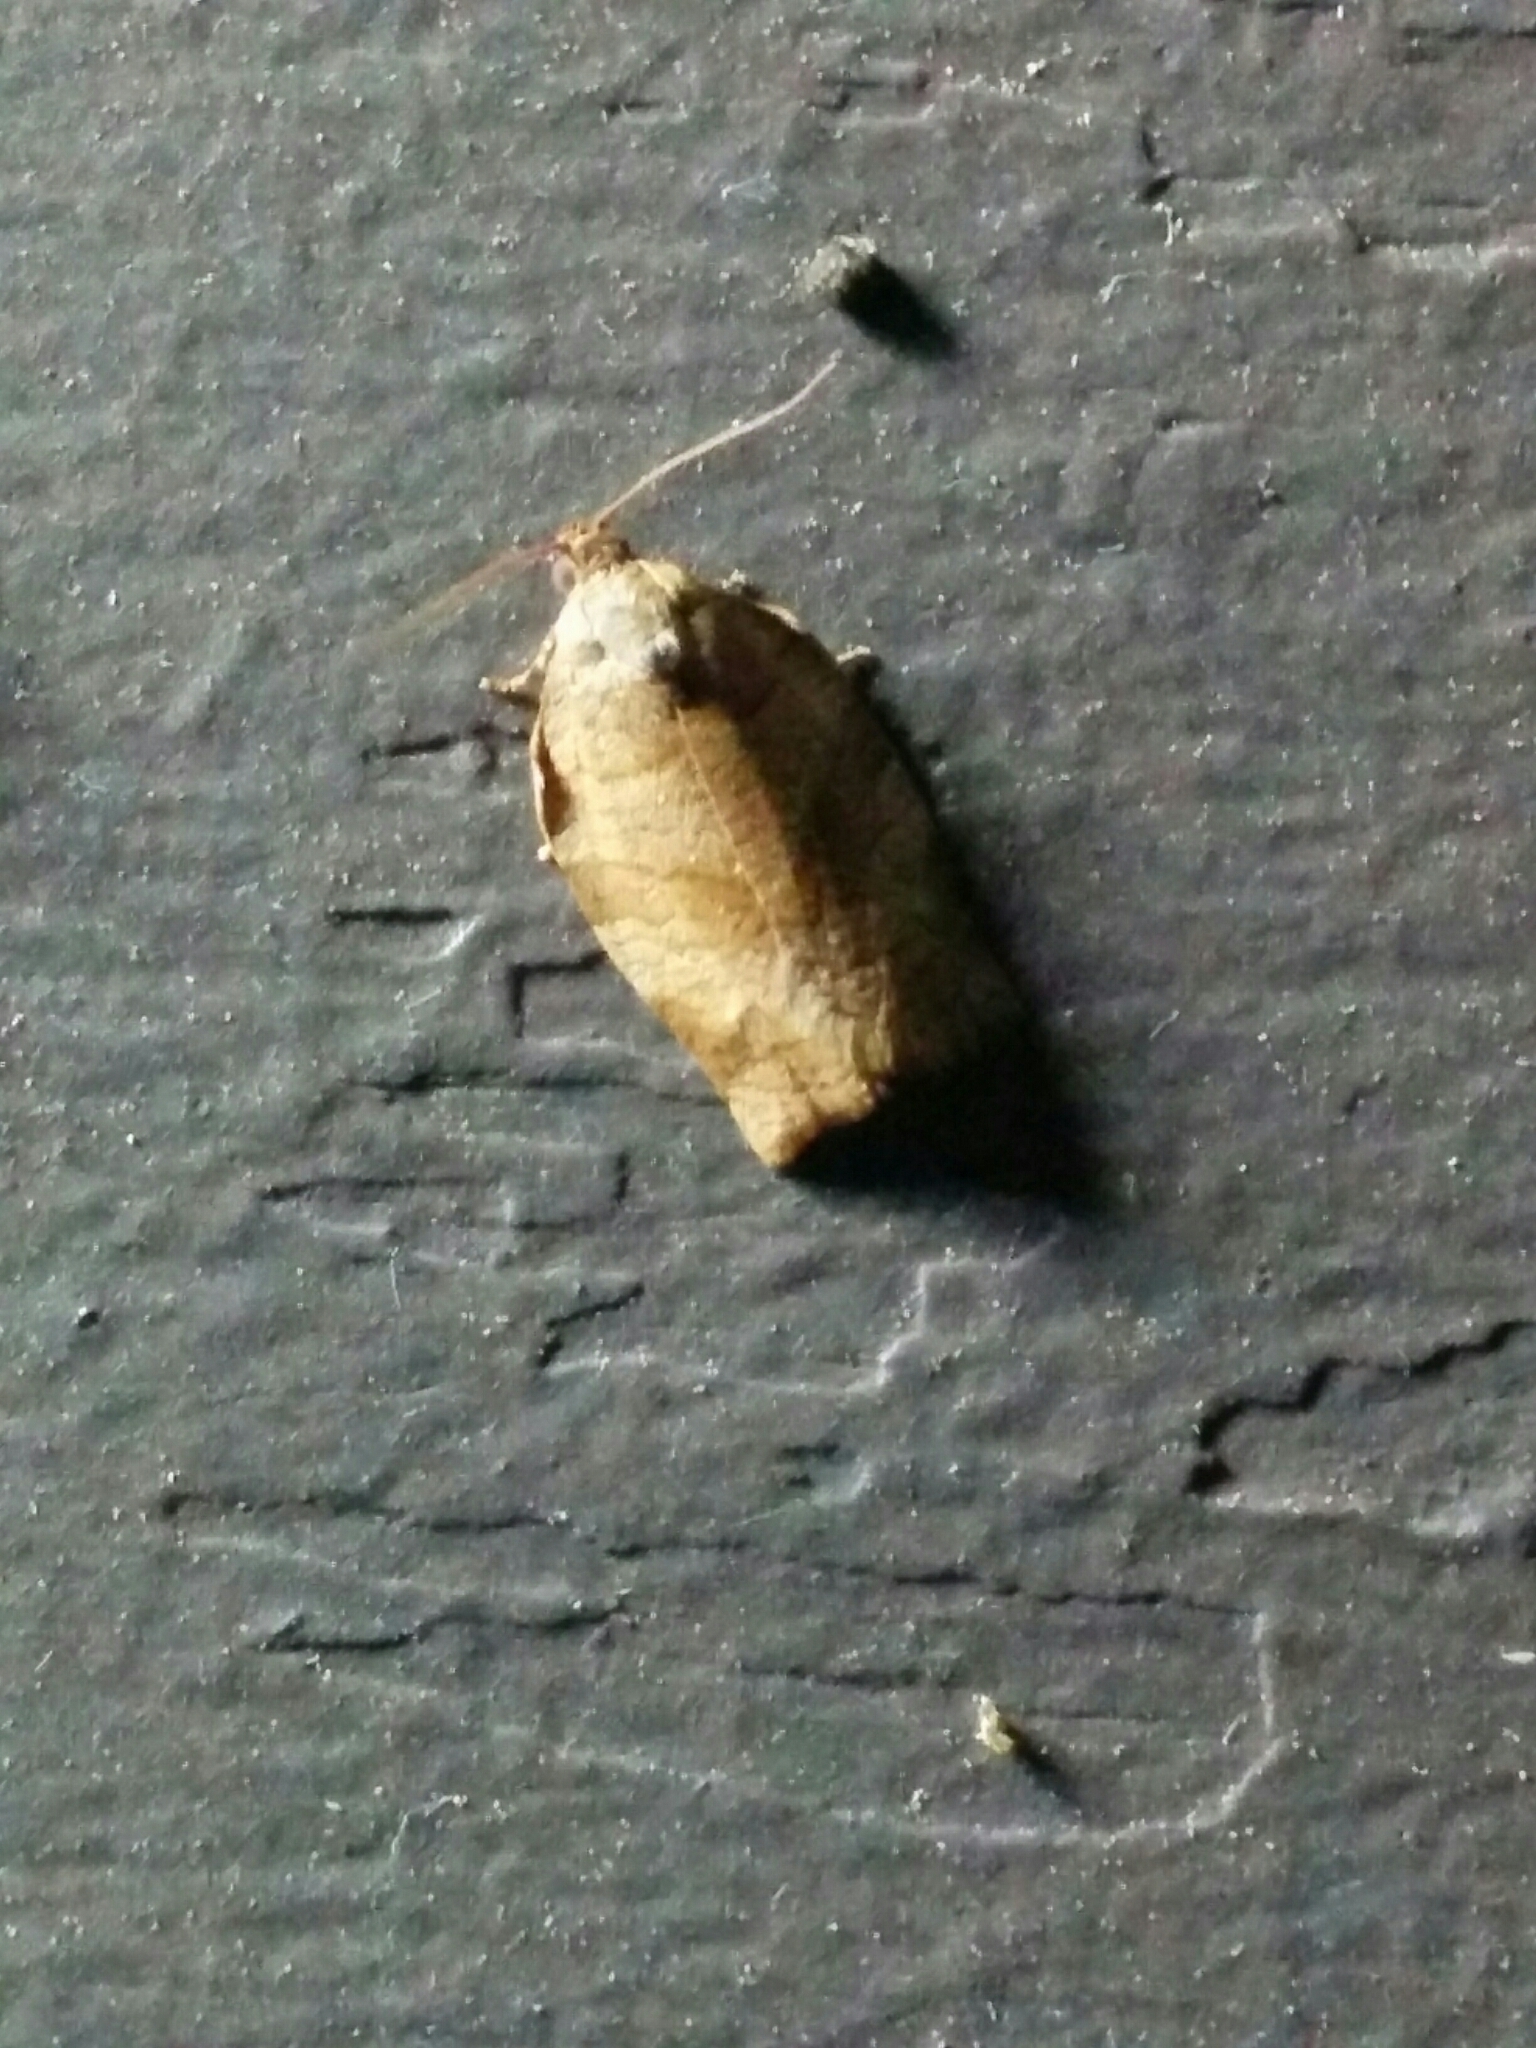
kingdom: Animalia
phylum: Arthropoda
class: Insecta
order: Lepidoptera
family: Tortricidae
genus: Choristoneura
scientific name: Choristoneura rosaceana
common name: Oblique-banded leafroller moth
